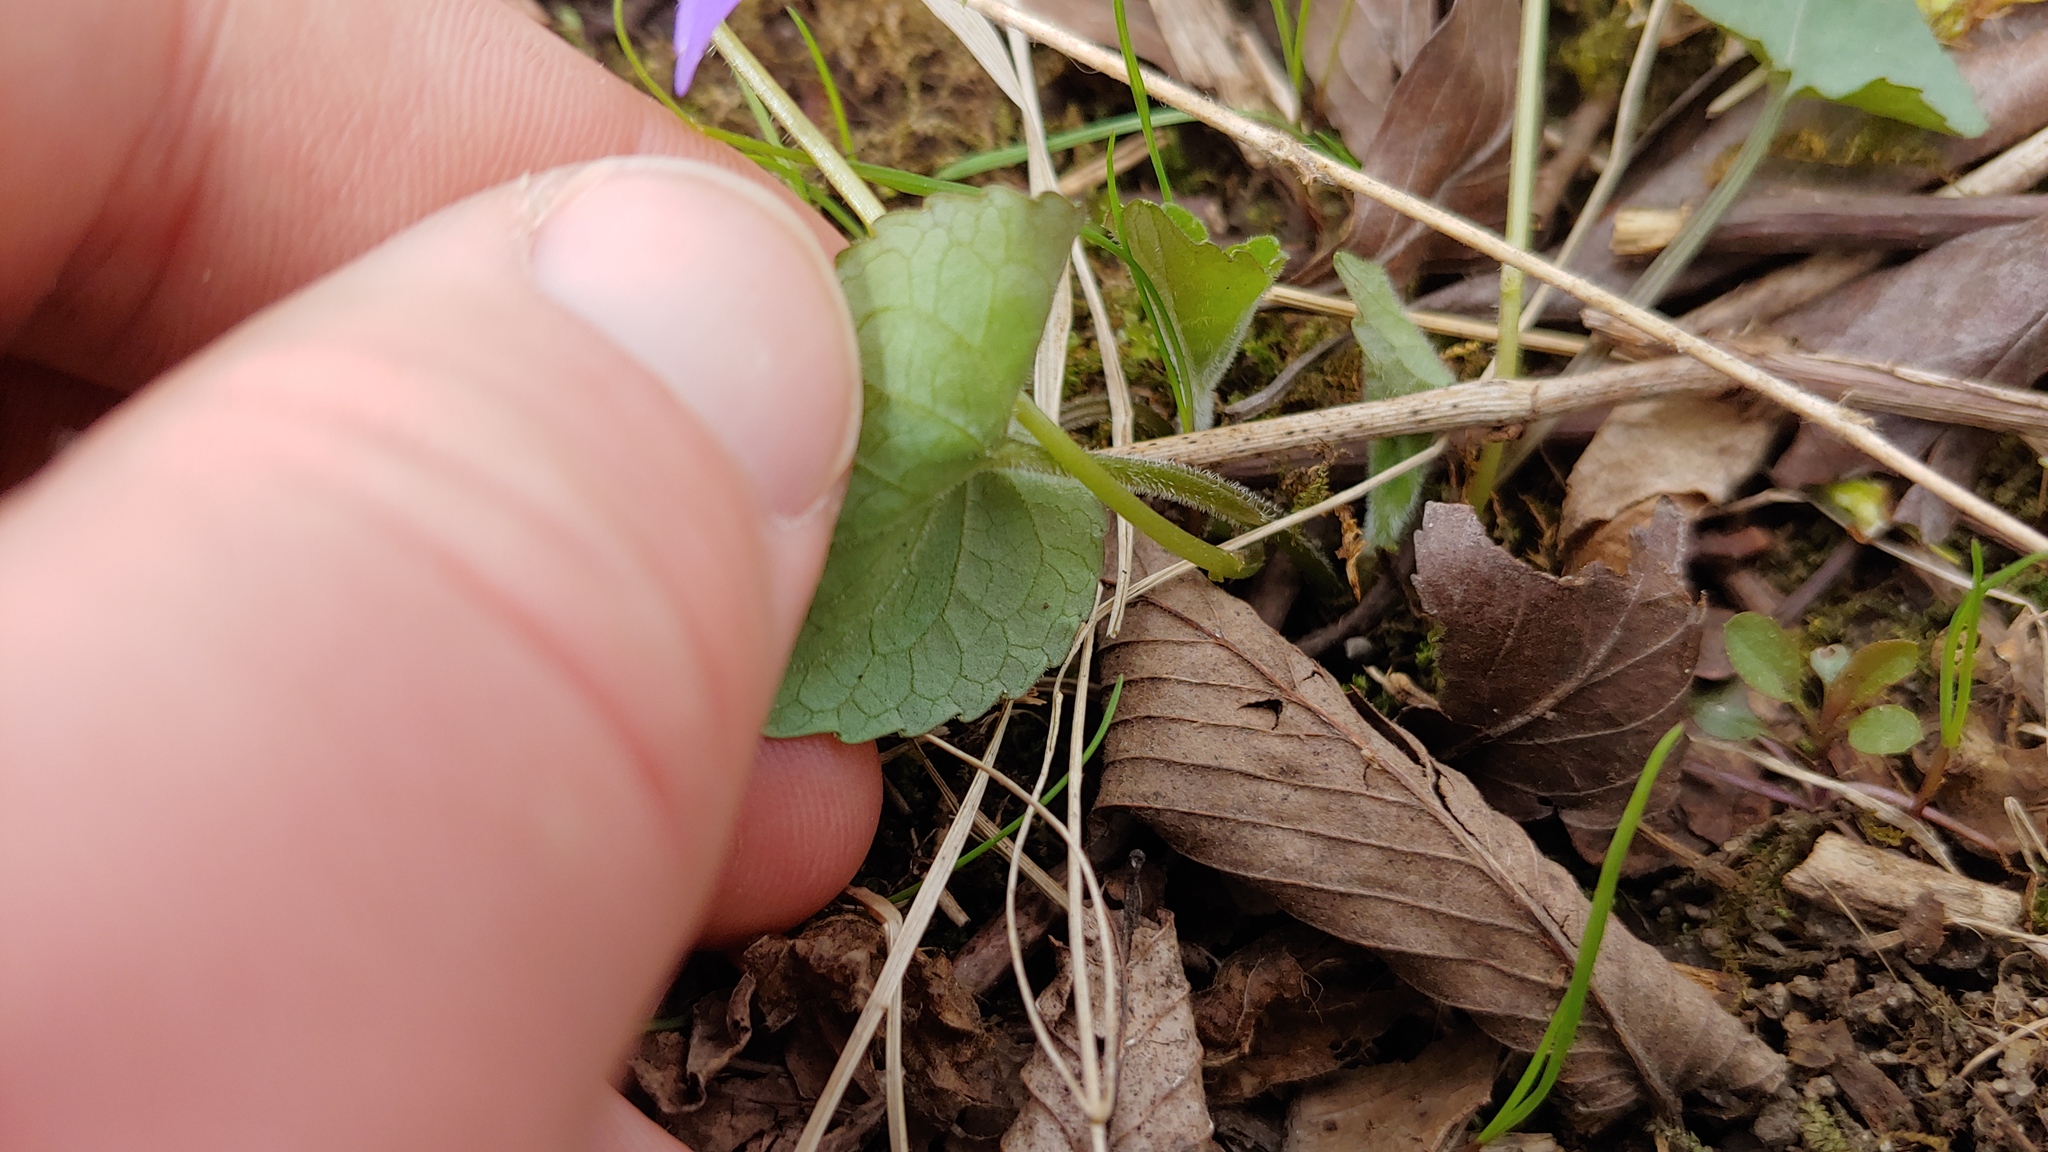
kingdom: Plantae
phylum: Tracheophyta
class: Magnoliopsida
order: Malpighiales
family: Violaceae
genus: Viola
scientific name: Viola sororia
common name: Dooryard violet
